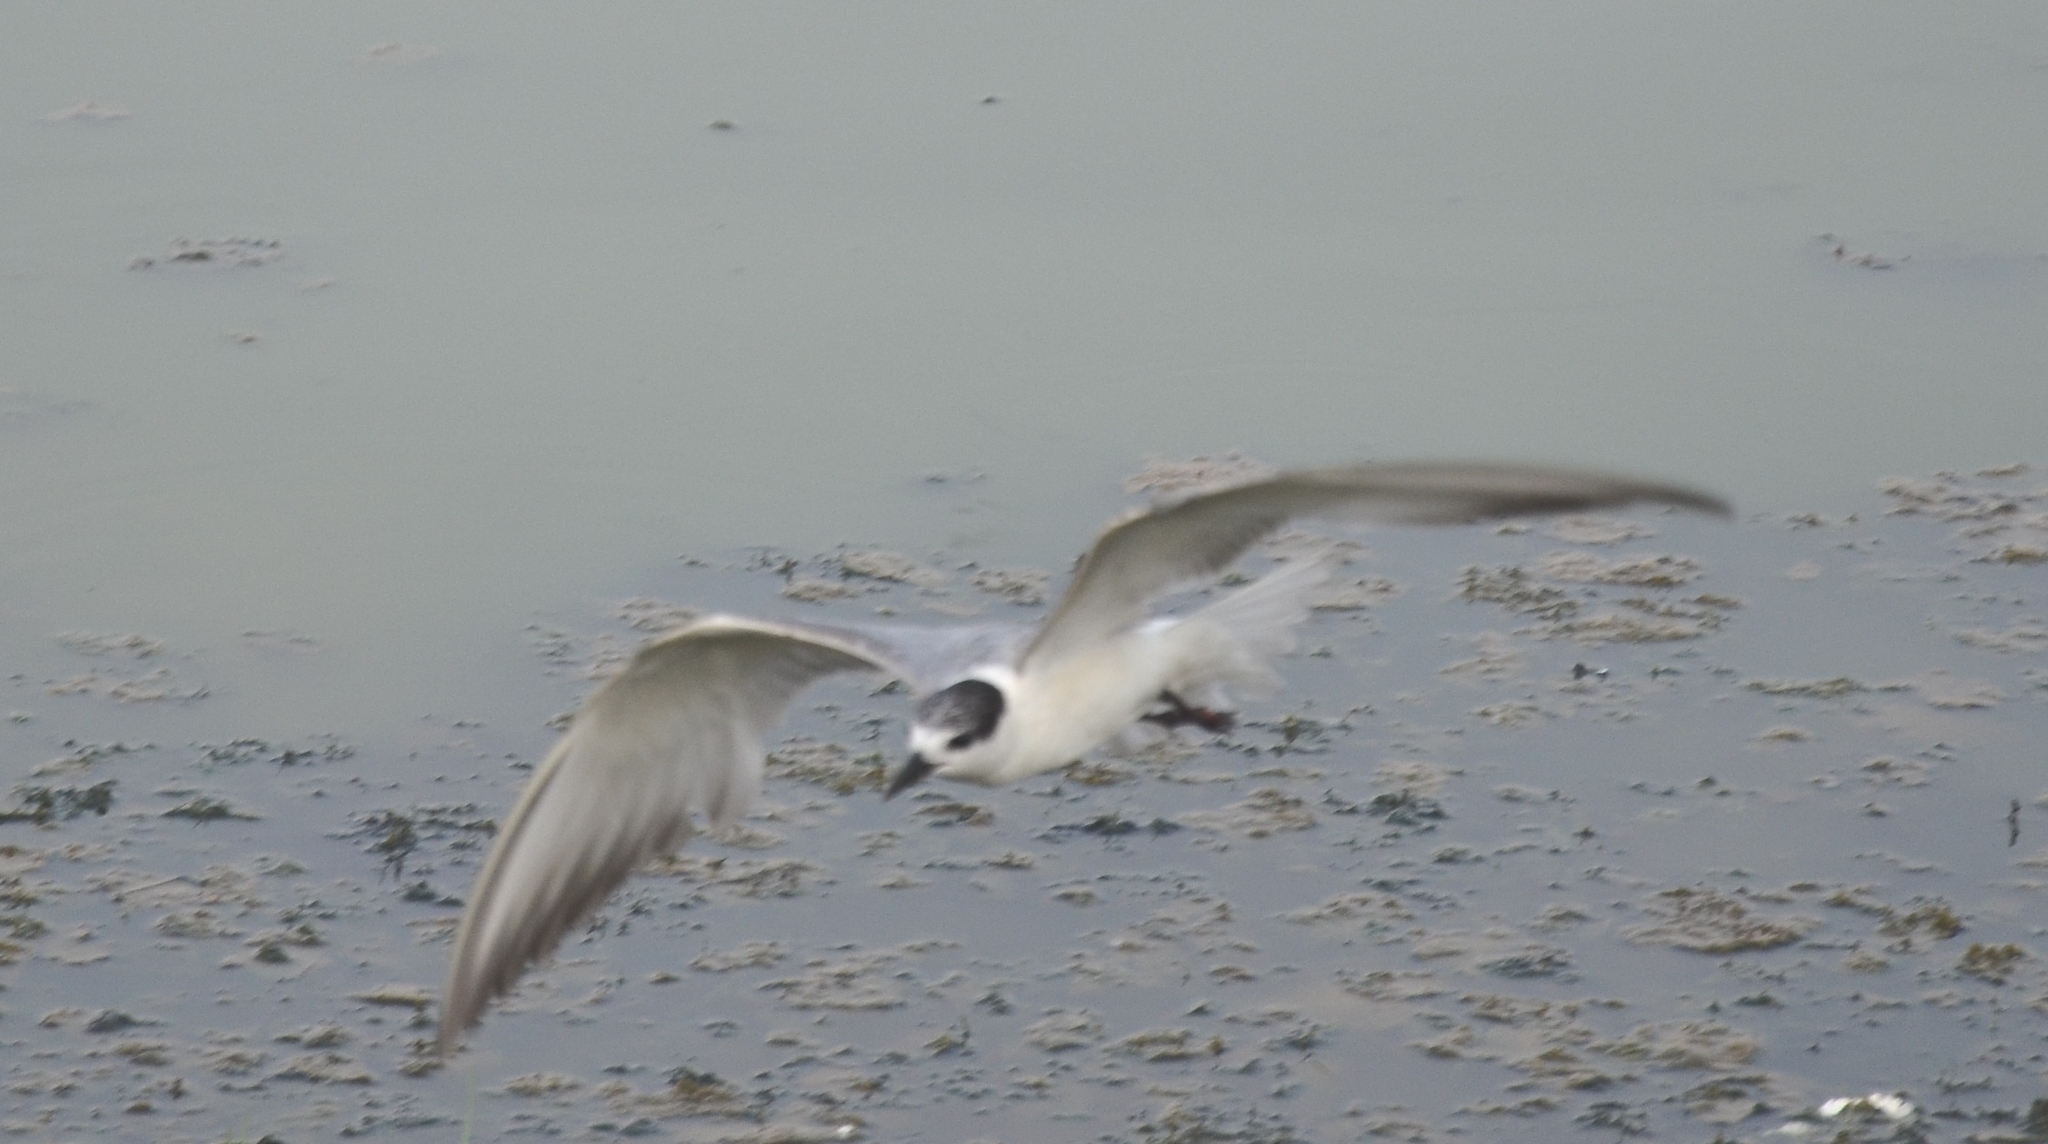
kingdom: Animalia
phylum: Chordata
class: Aves
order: Charadriiformes
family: Laridae
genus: Chlidonias
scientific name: Chlidonias hybrida
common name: Whiskered tern
